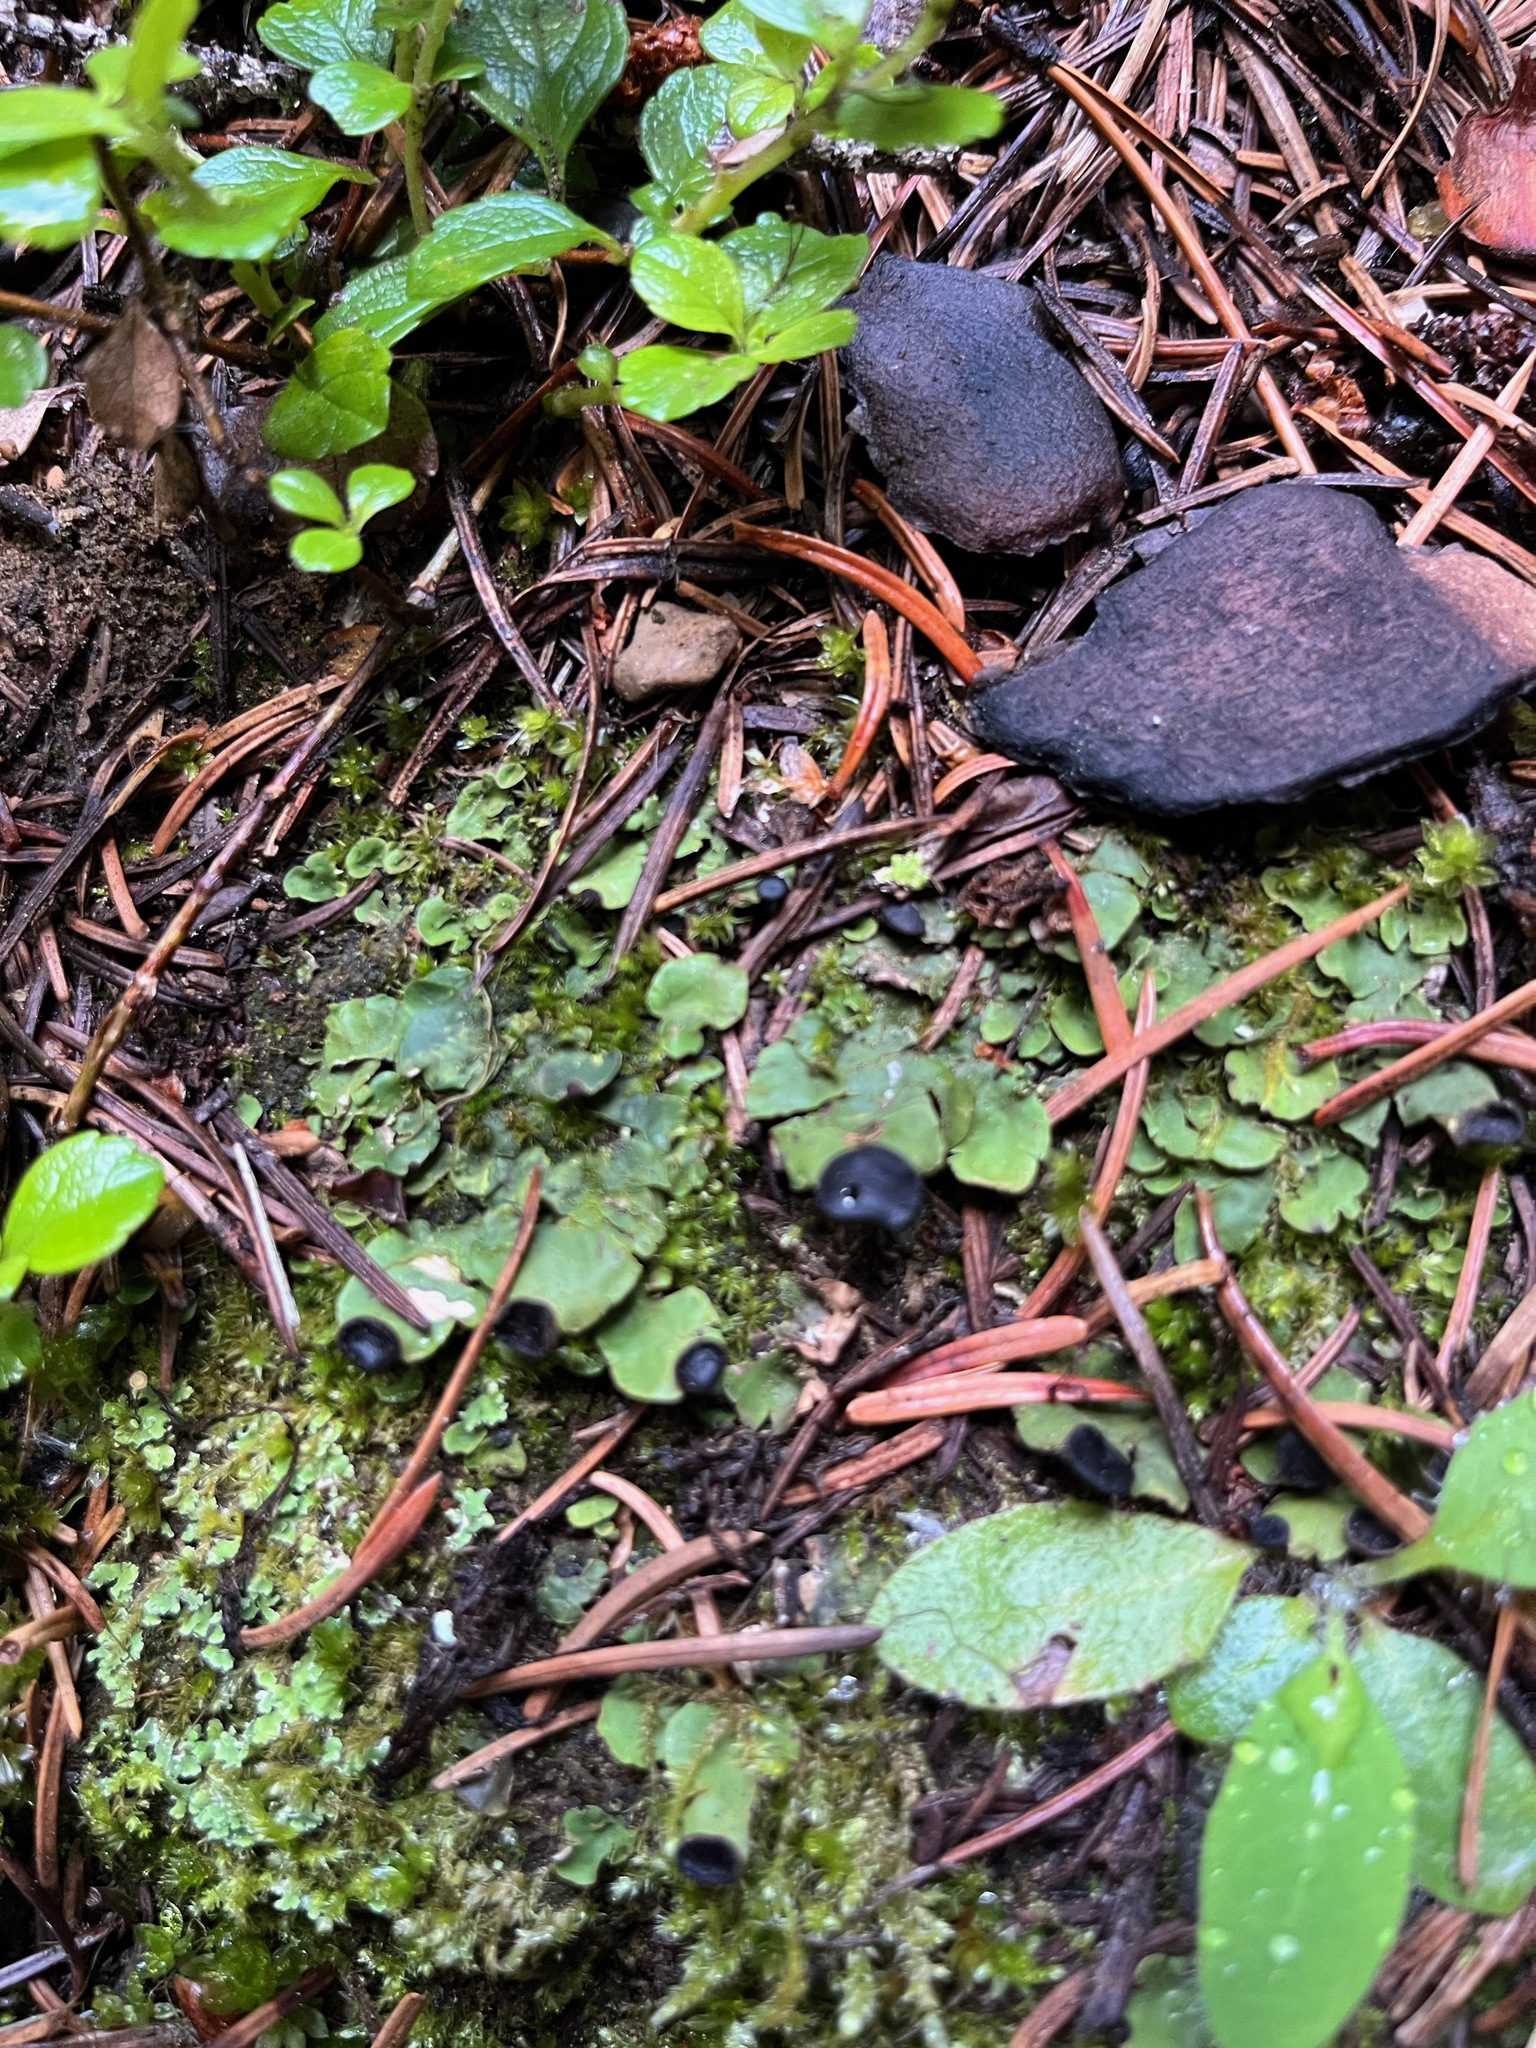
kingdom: Fungi
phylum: Ascomycota
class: Lecanoromycetes
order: Peltigerales
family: Peltigeraceae
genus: Peltigera
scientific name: Peltigera venosa
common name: Pixie gowns lichen
